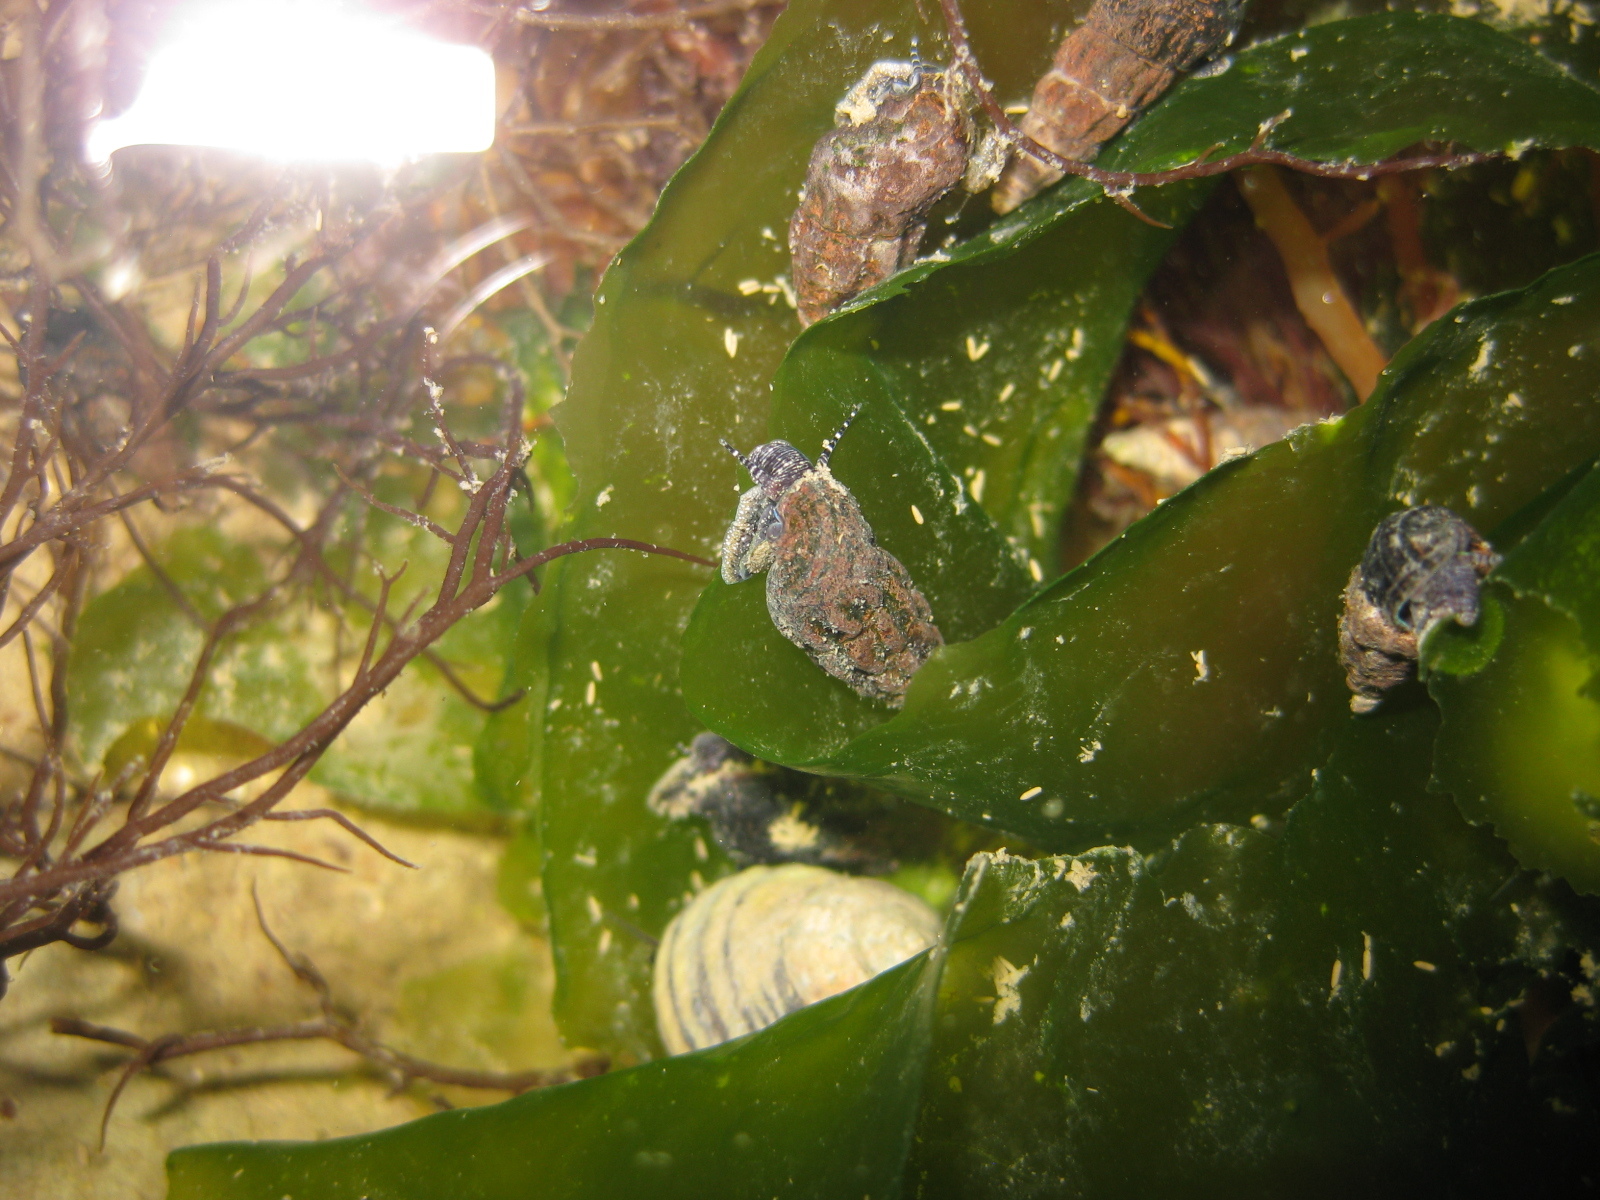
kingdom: Animalia
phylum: Mollusca
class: Gastropoda
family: Batillariidae
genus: Zeacumantus
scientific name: Zeacumantus subcarinatus
